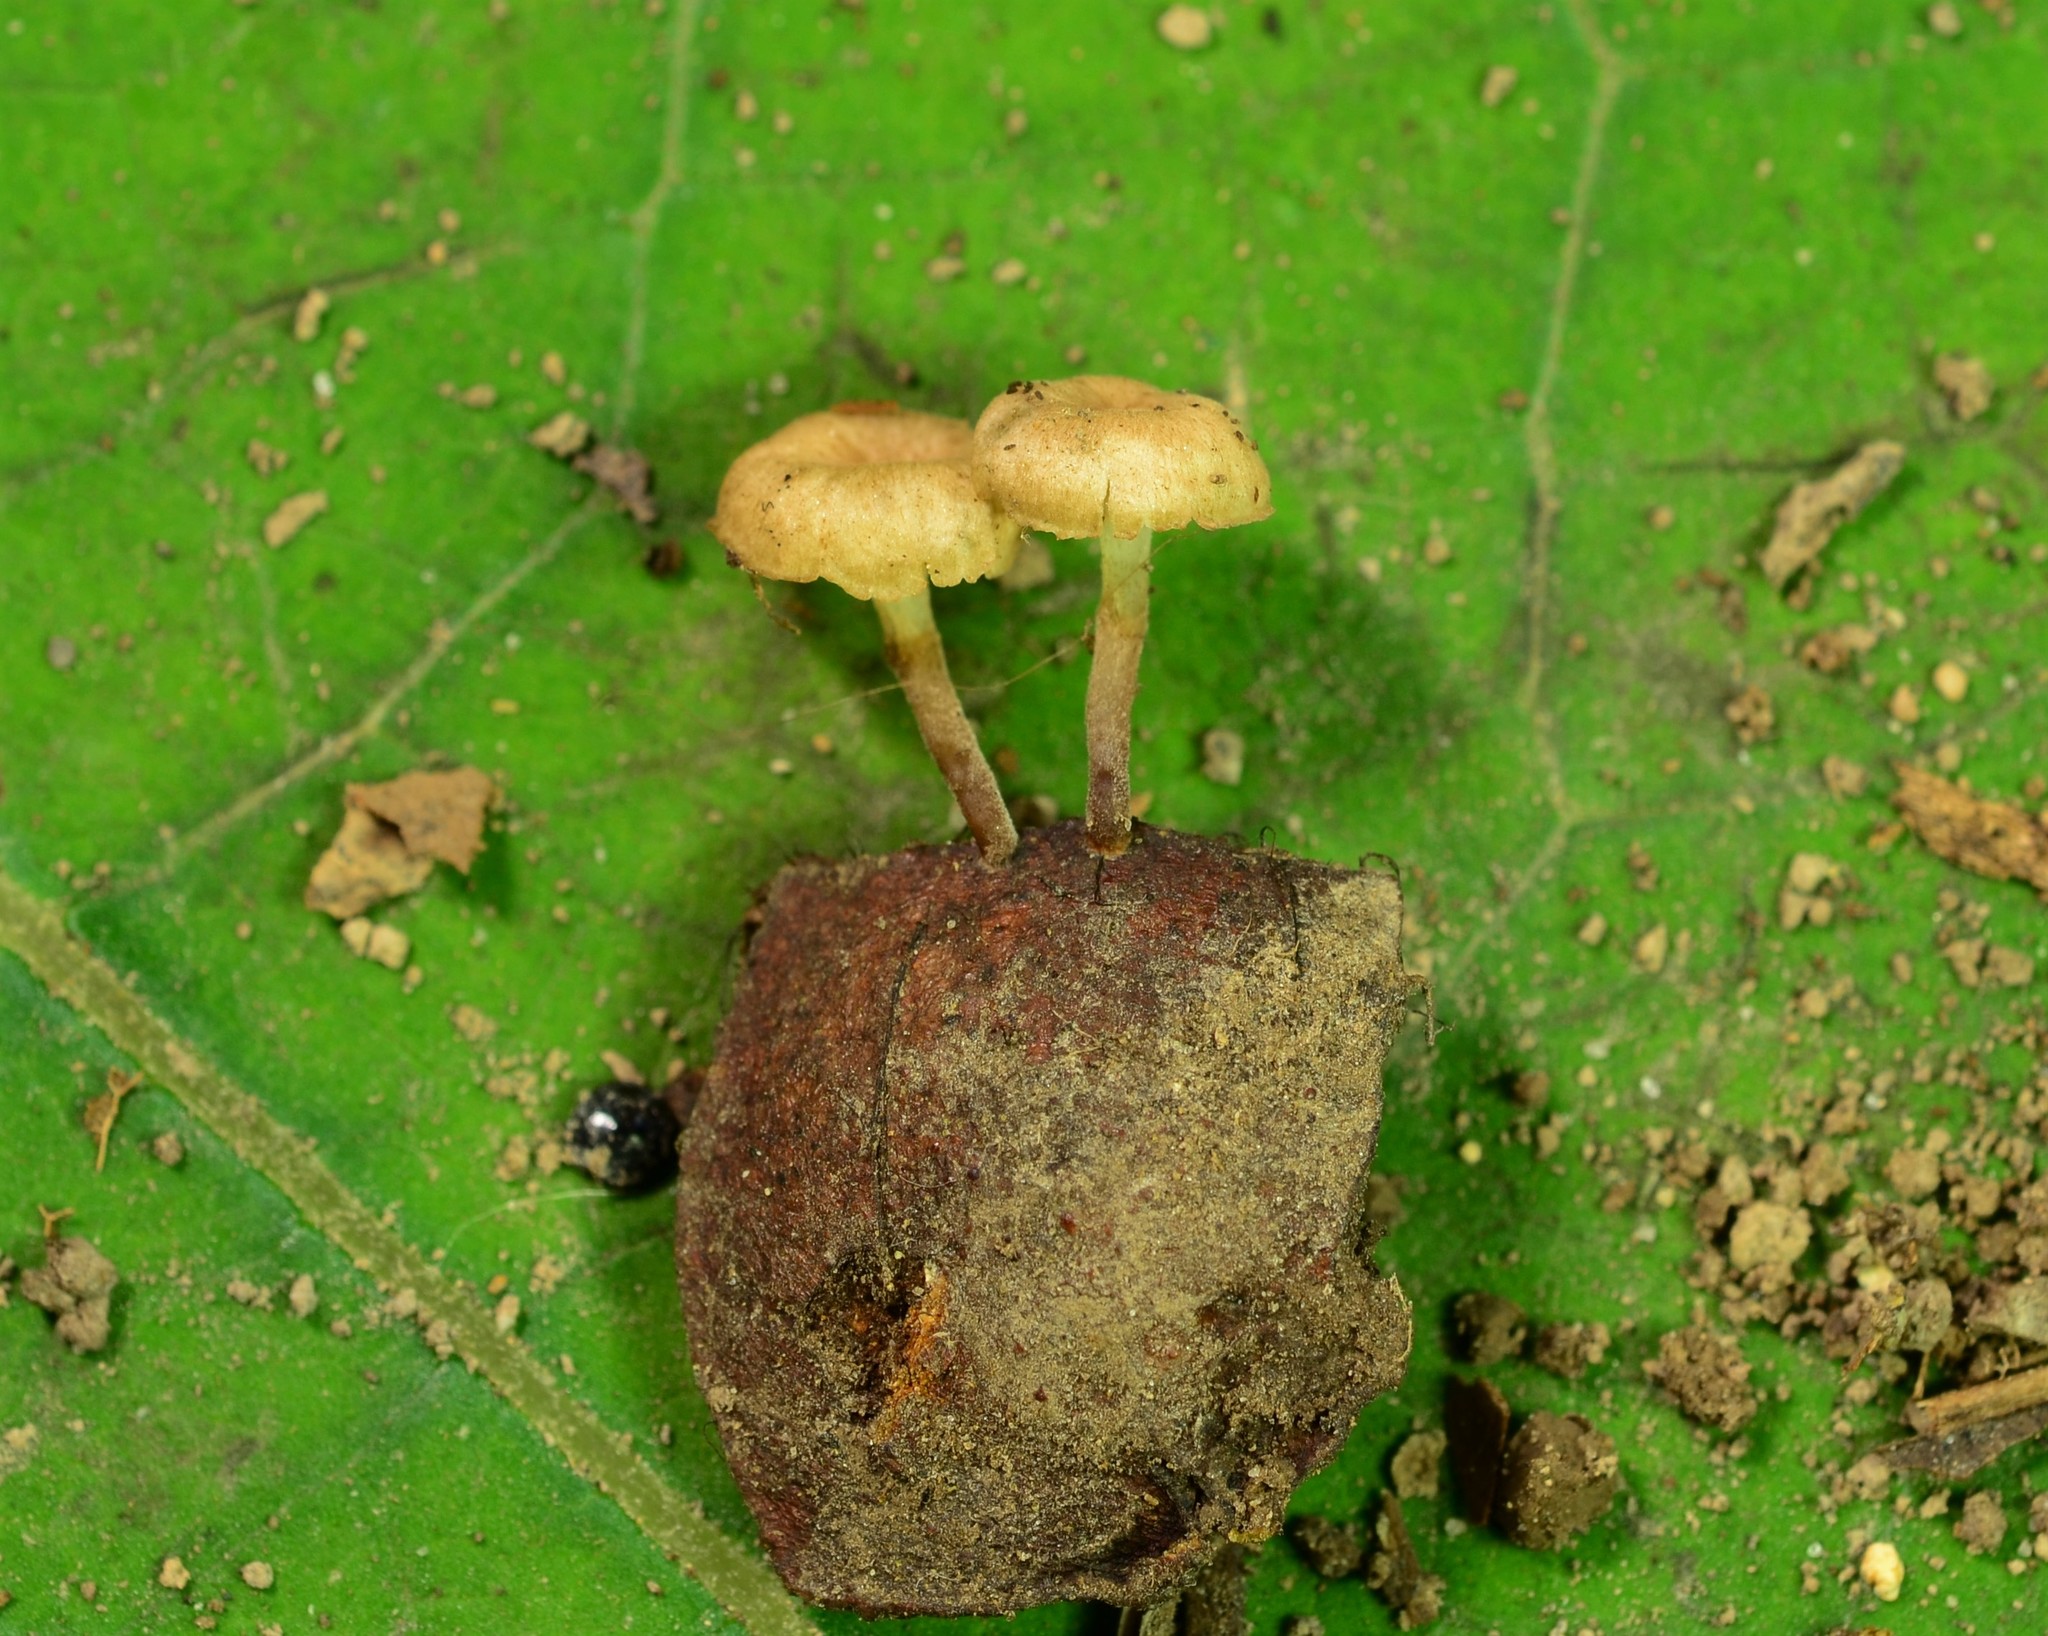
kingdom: Fungi
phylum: Basidiomycota
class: Agaricomycetes
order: Agaricales
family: Porotheleaceae
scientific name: Porotheleaceae
